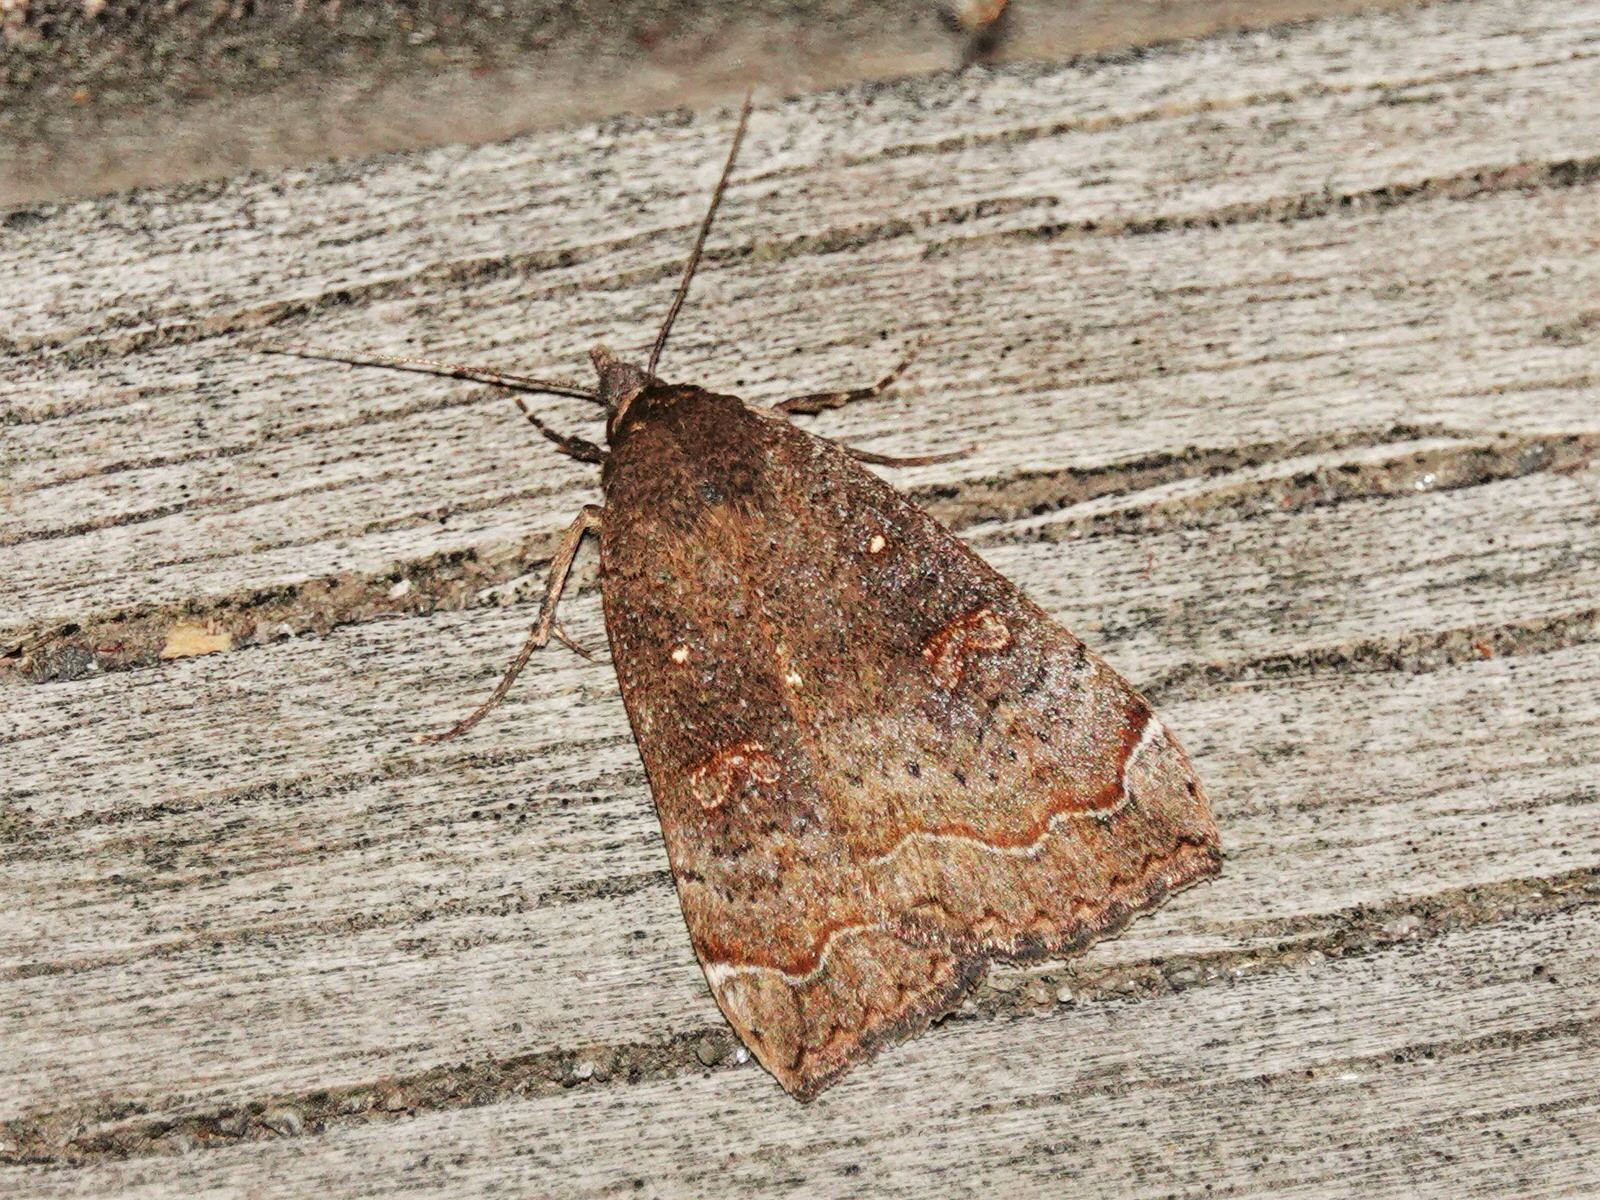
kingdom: Animalia
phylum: Arthropoda
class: Insecta
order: Lepidoptera
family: Erebidae
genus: Rhapsa
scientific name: Rhapsa scotosialis
